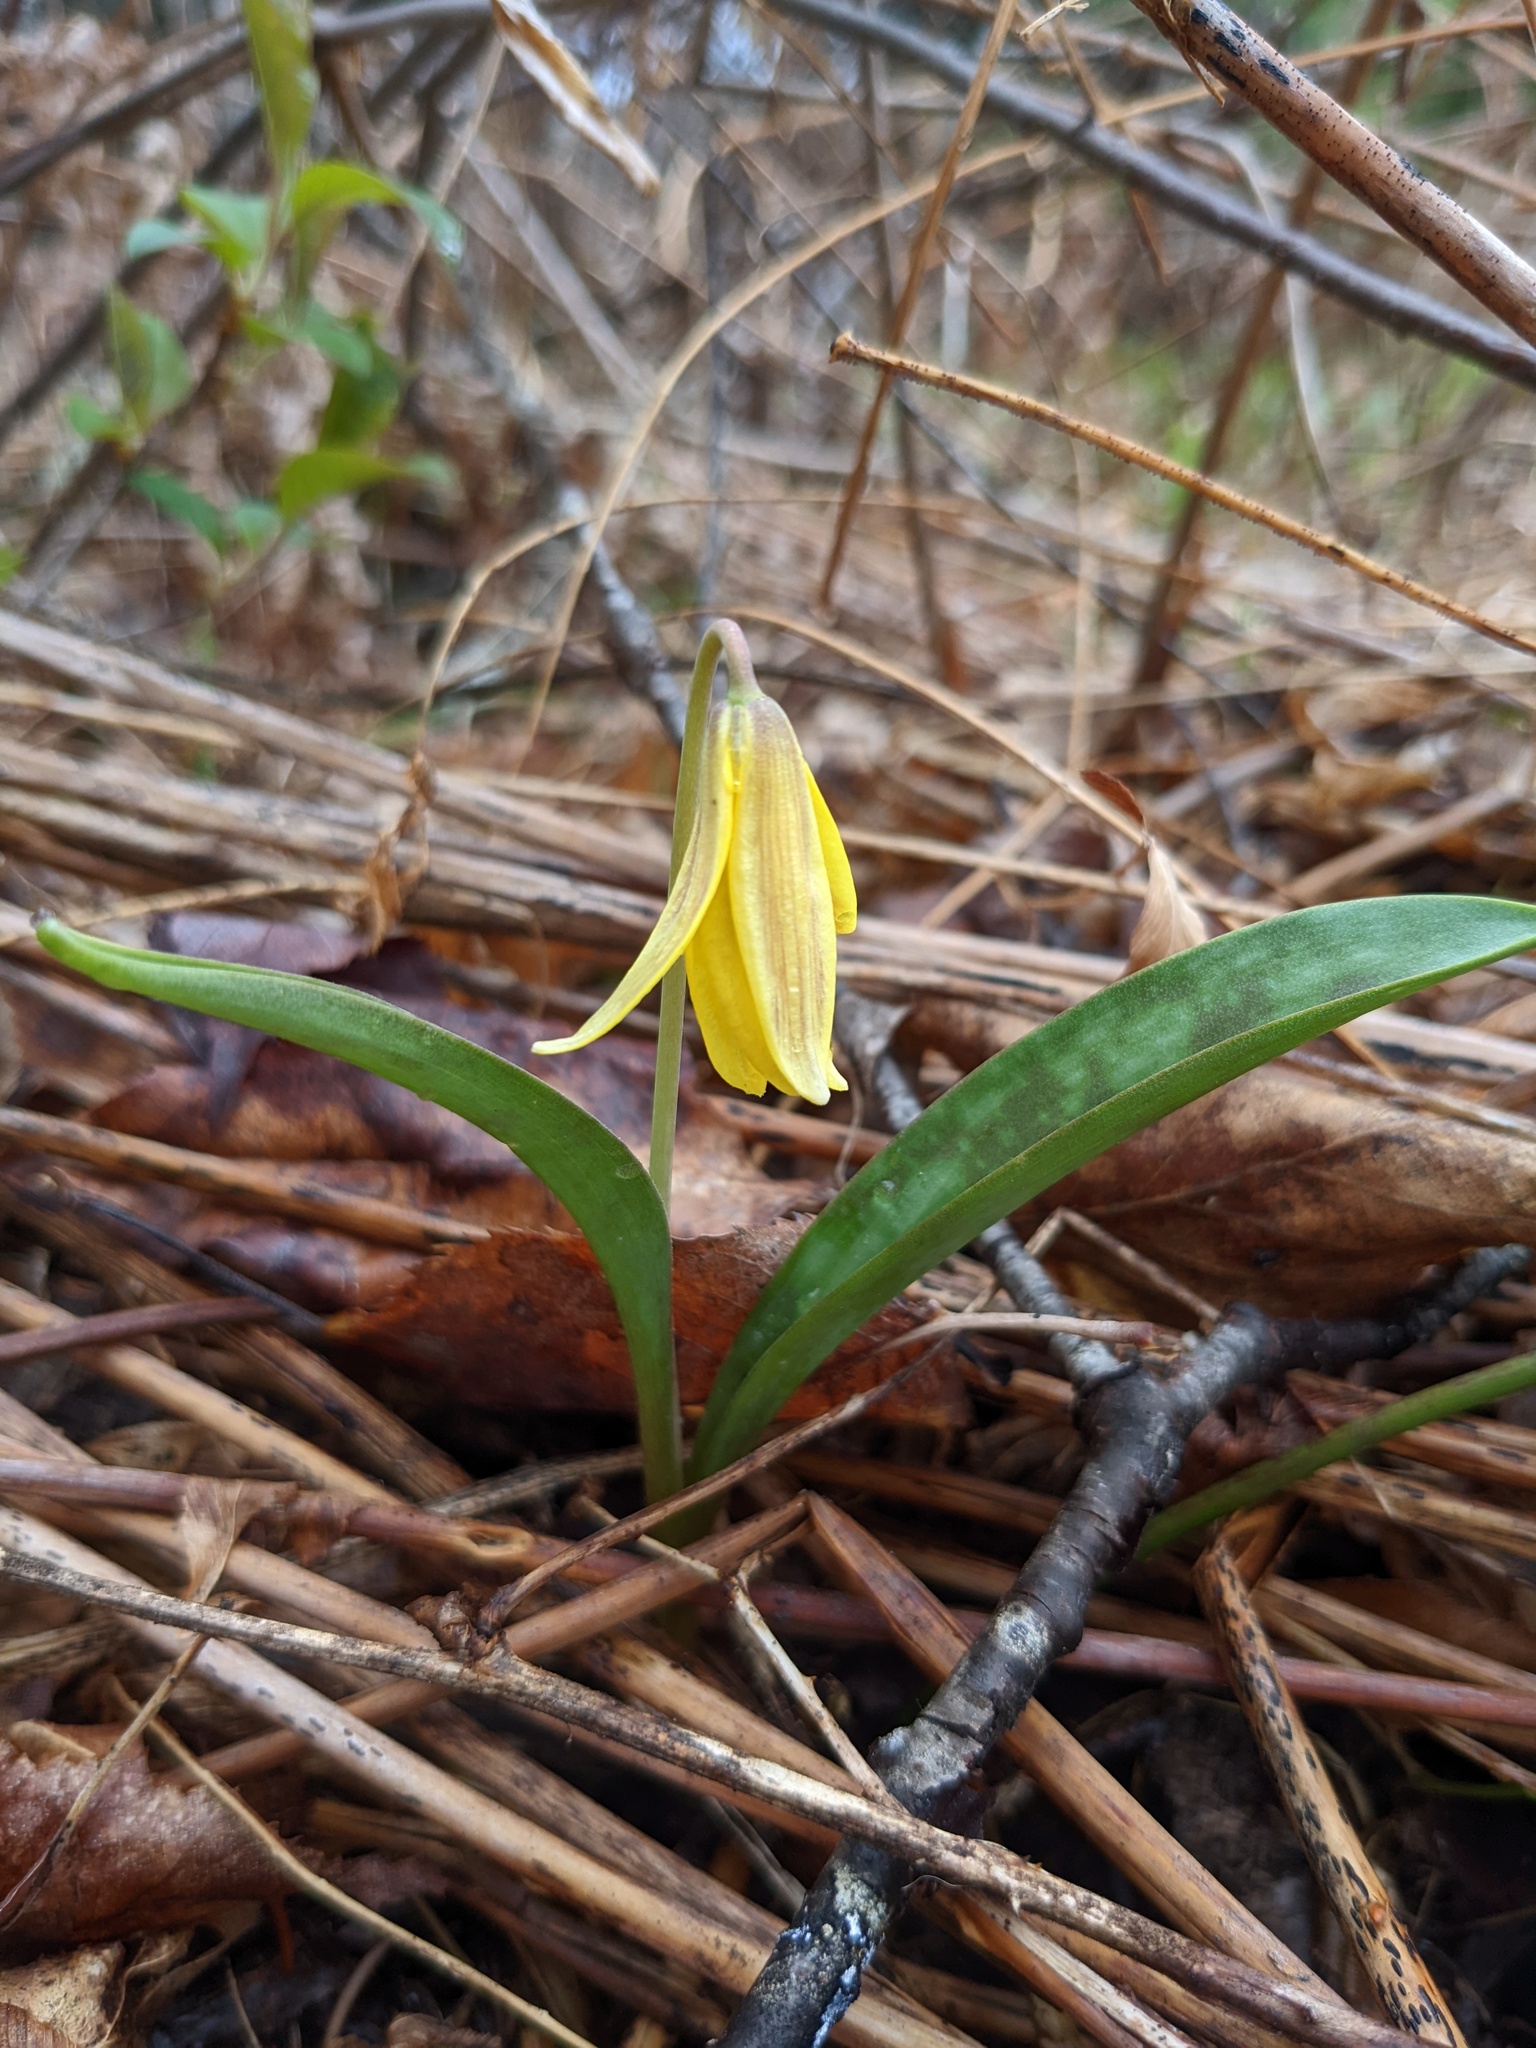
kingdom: Plantae
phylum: Tracheophyta
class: Liliopsida
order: Liliales
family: Liliaceae
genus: Erythronium
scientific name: Erythronium americanum
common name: Yellow adder's-tongue
